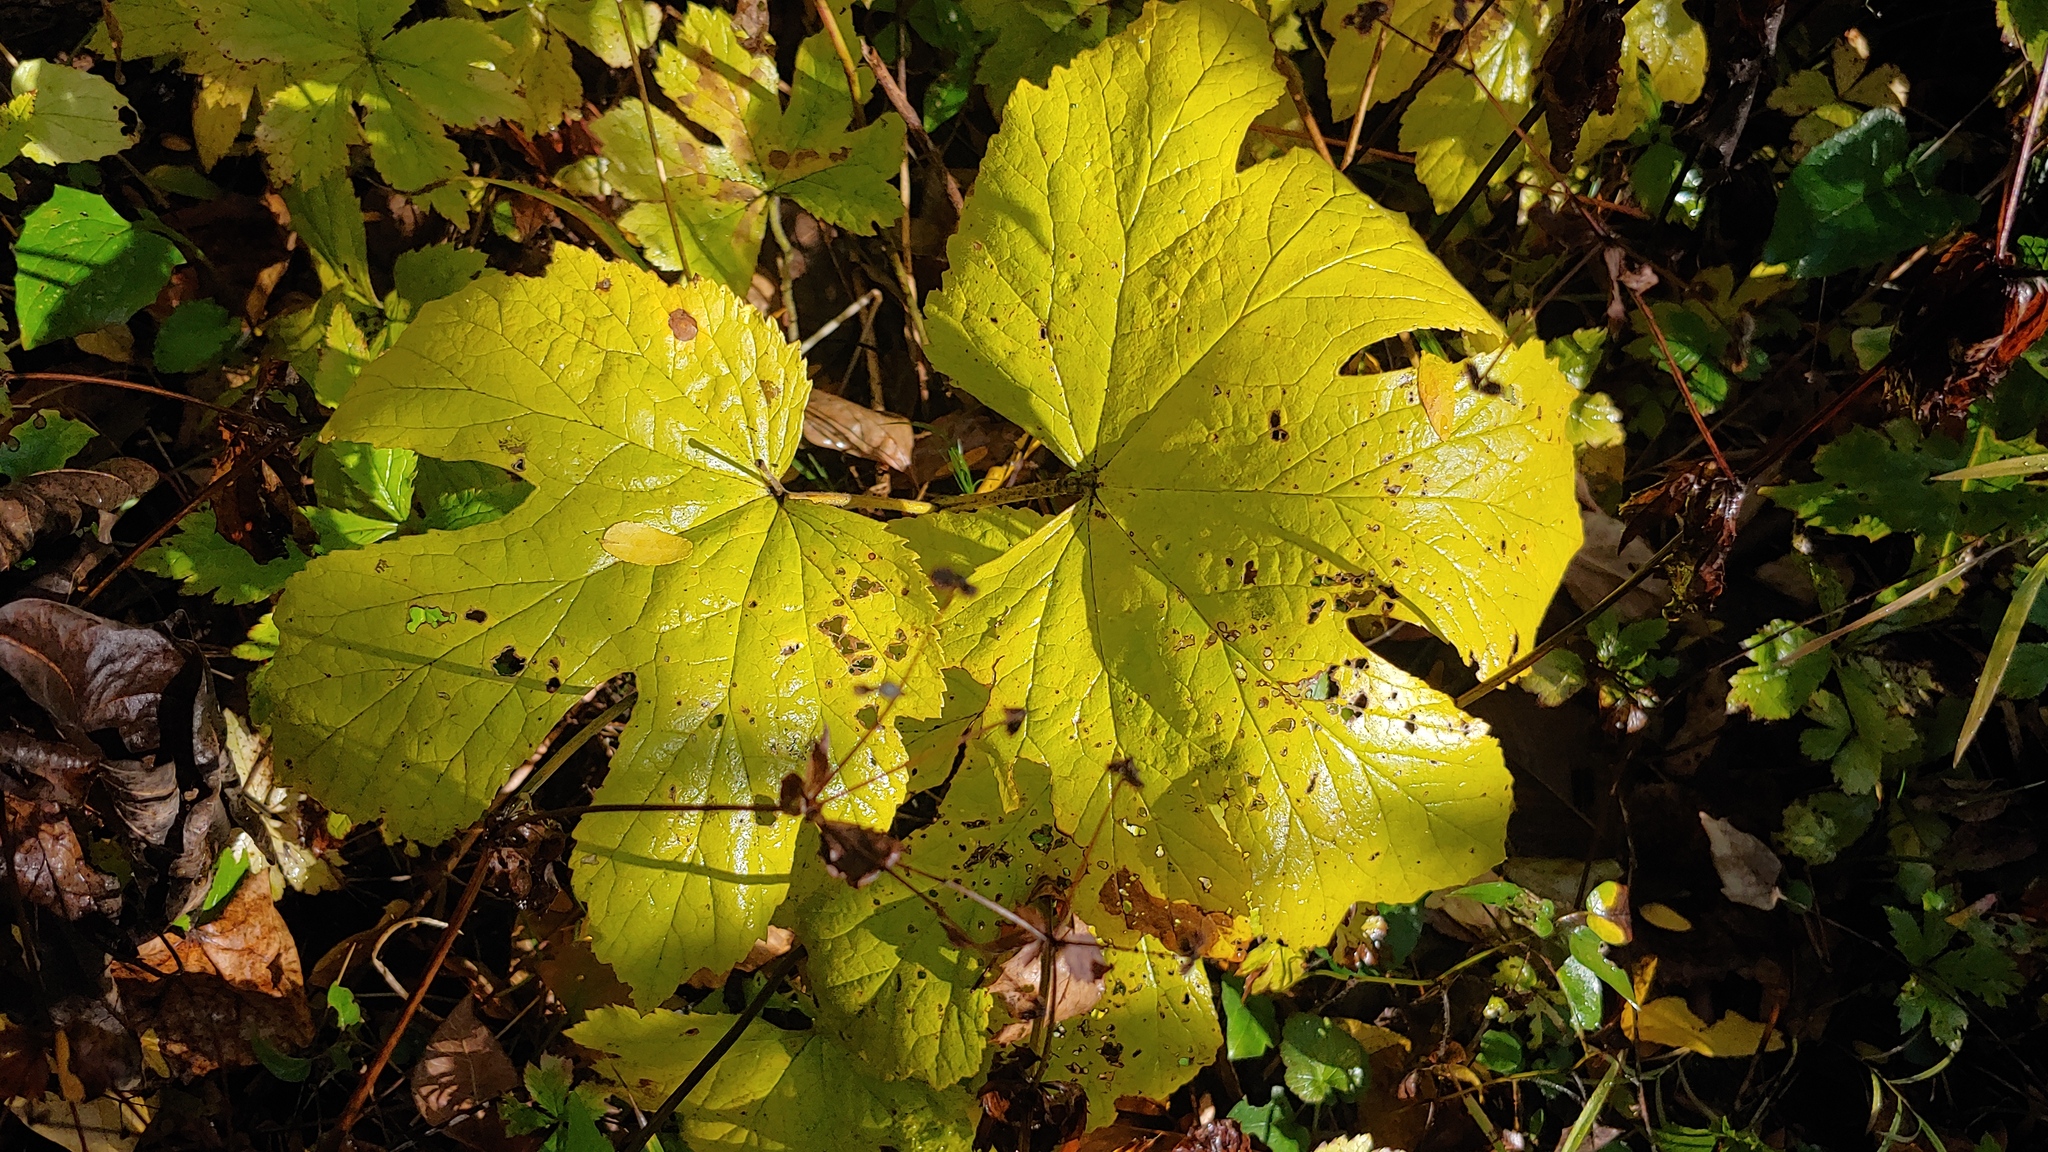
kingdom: Plantae
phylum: Tracheophyta
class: Magnoliopsida
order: Ranunculales
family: Ranunculaceae
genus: Hydrastis
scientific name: Hydrastis canadensis
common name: Goldenseal
